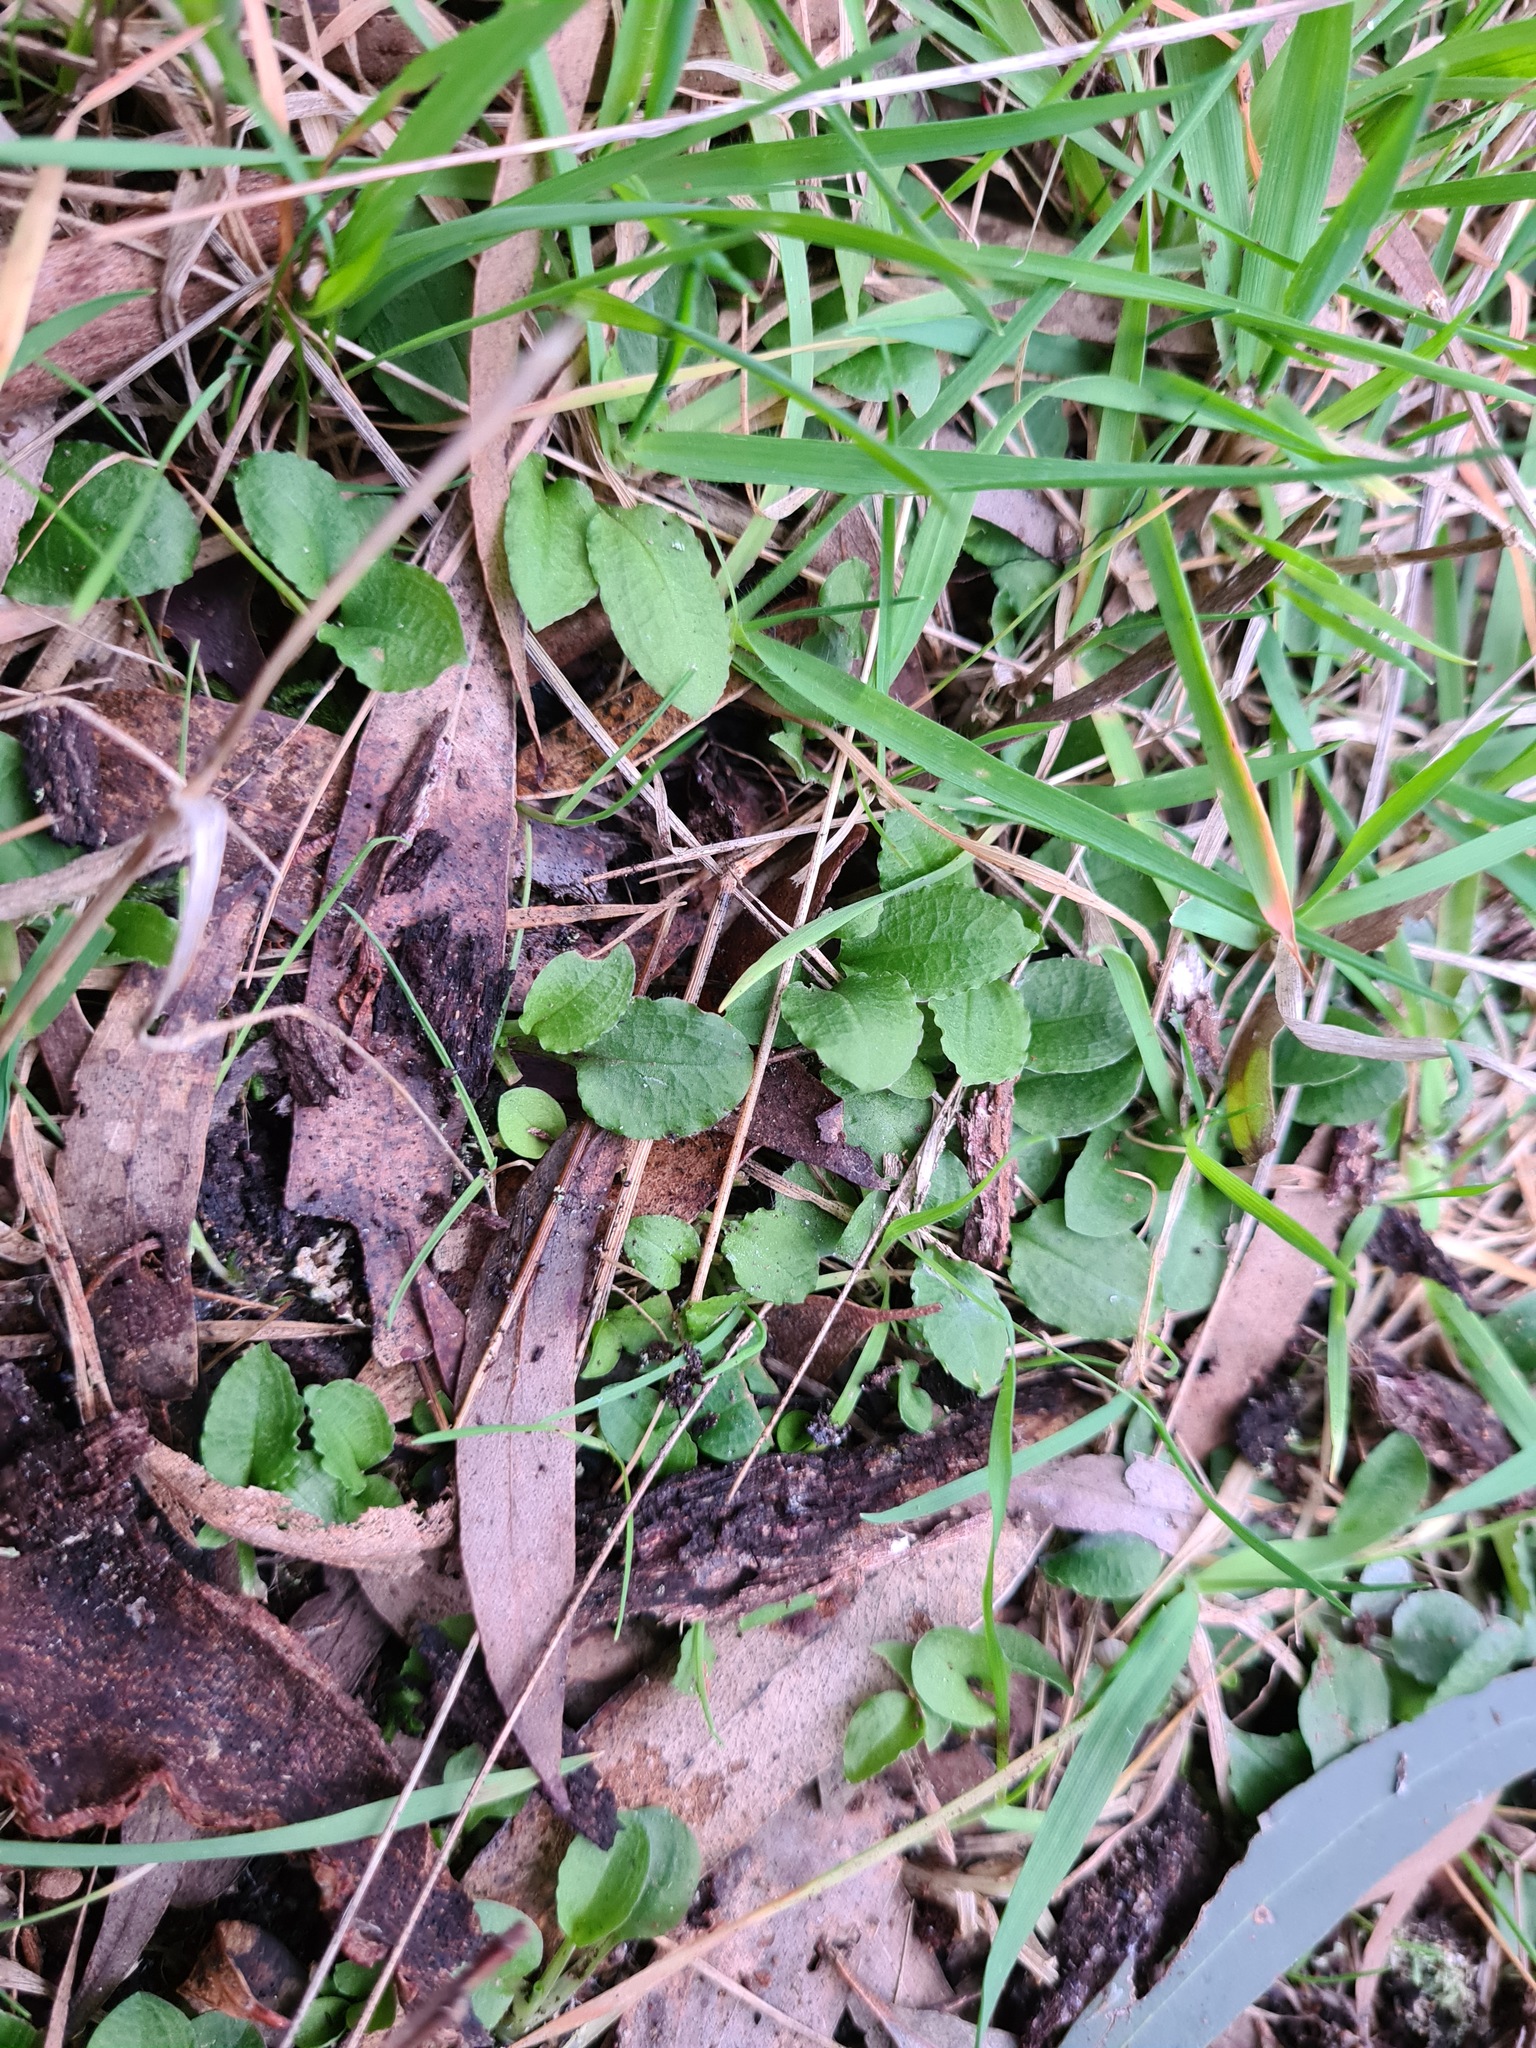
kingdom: Plantae
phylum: Tracheophyta
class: Liliopsida
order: Asparagales
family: Orchidaceae
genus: Pterostylis
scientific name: Pterostylis nutans
